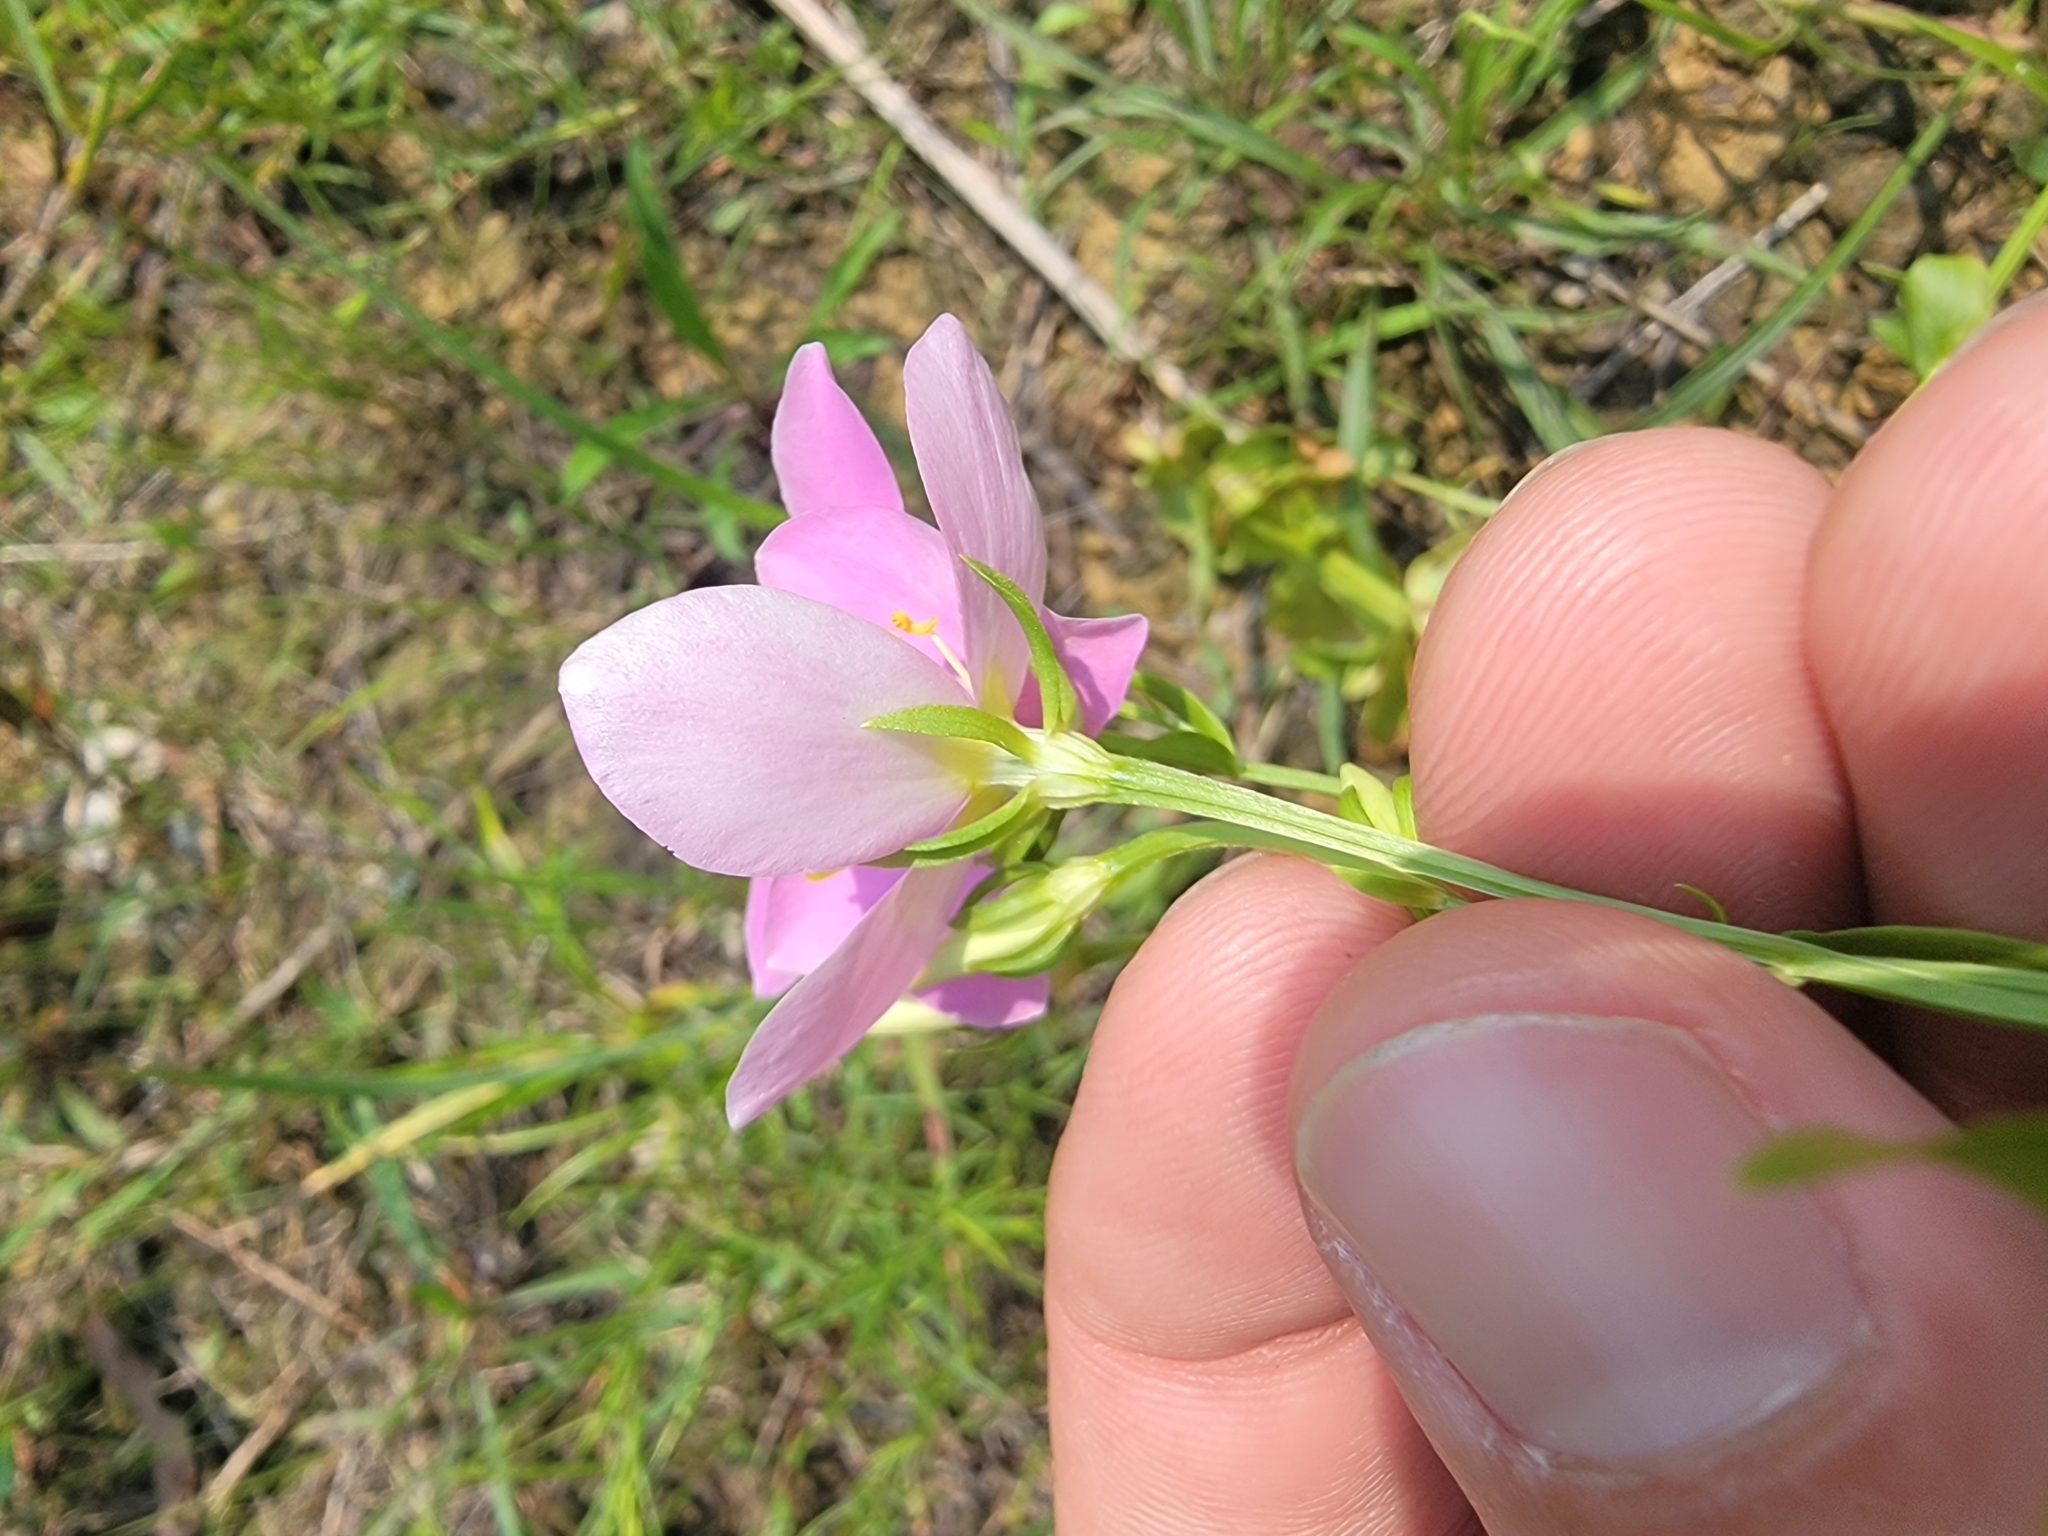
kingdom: Plantae
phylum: Tracheophyta
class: Magnoliopsida
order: Gentianales
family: Gentianaceae
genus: Sabatia
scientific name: Sabatia angularis
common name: Rose-pink
